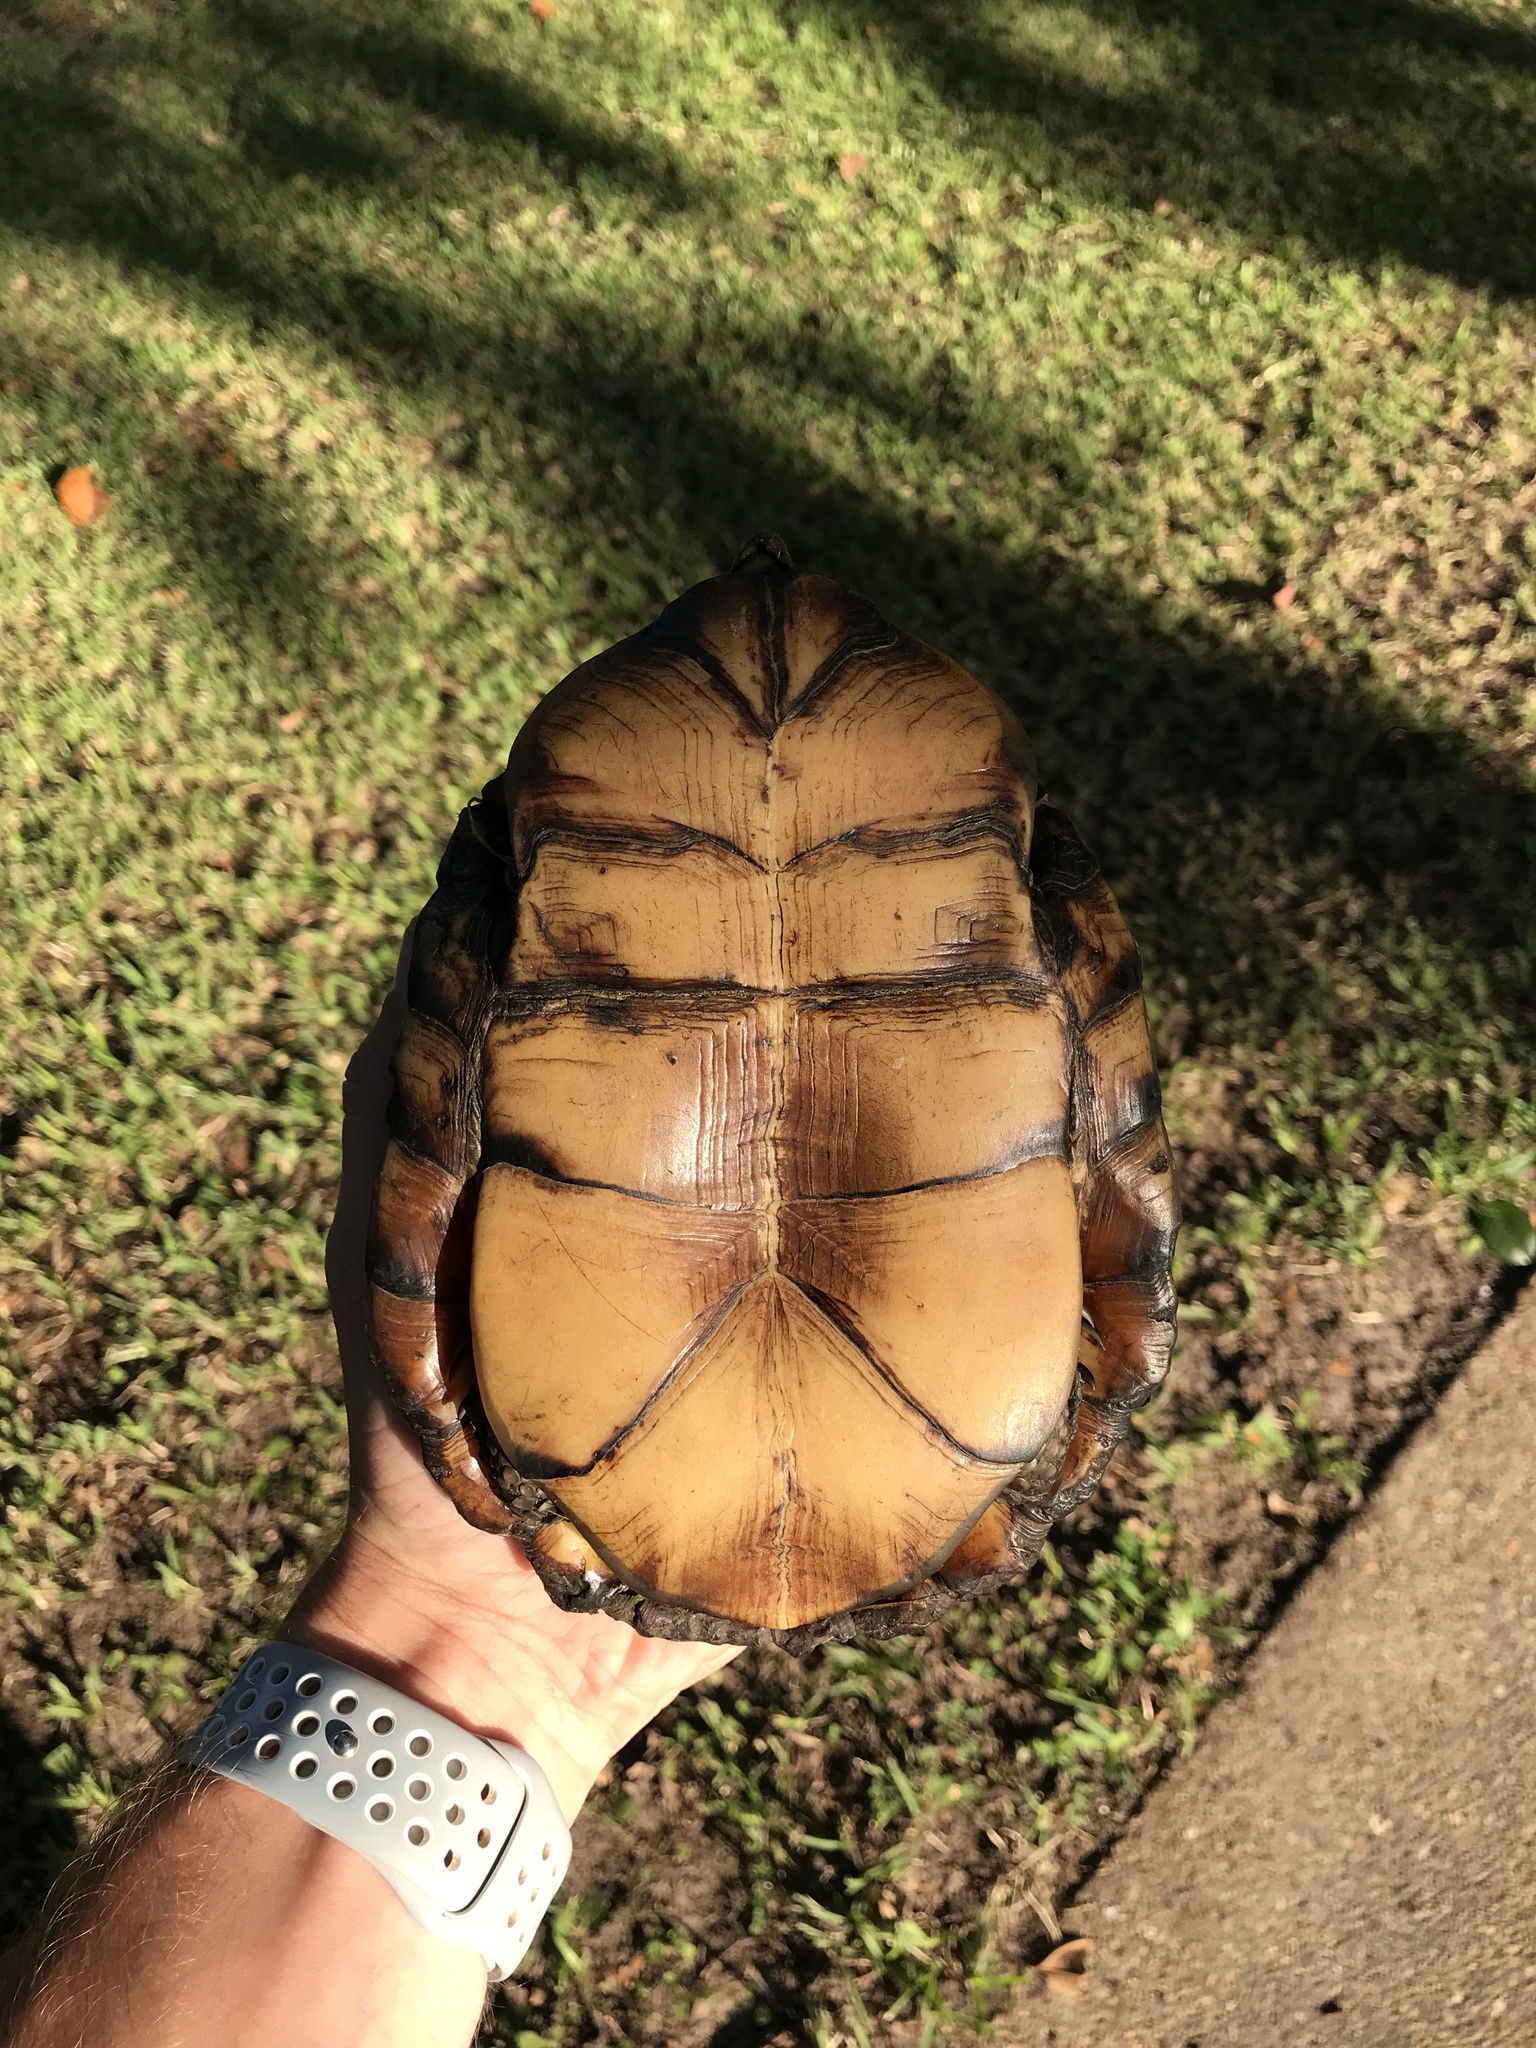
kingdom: Animalia
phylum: Chordata
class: Testudines
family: Emydidae
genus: Terrapene
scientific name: Terrapene carolina
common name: Common box turtle
